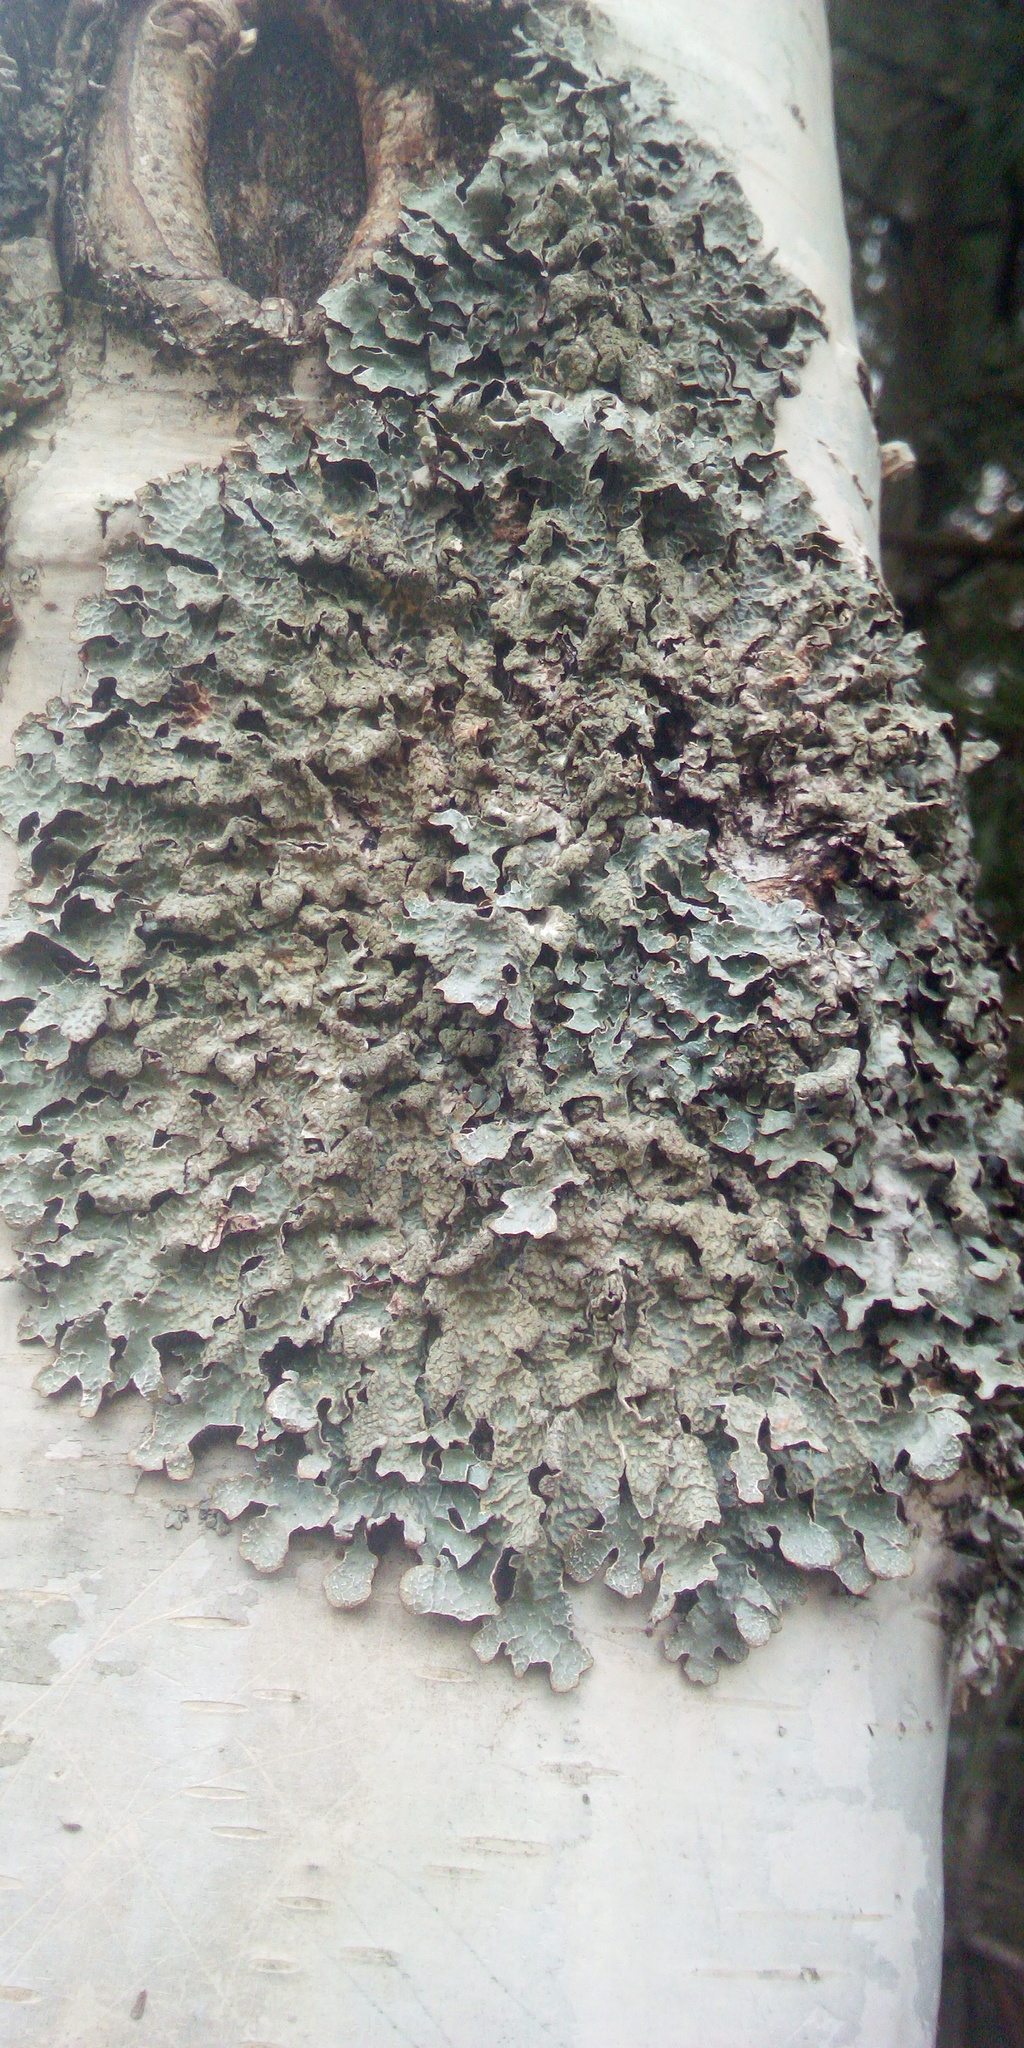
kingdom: Fungi
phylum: Ascomycota
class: Lecanoromycetes
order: Lecanorales
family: Parmeliaceae
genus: Parmelia
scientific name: Parmelia sulcata
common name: Netted shield lichen
